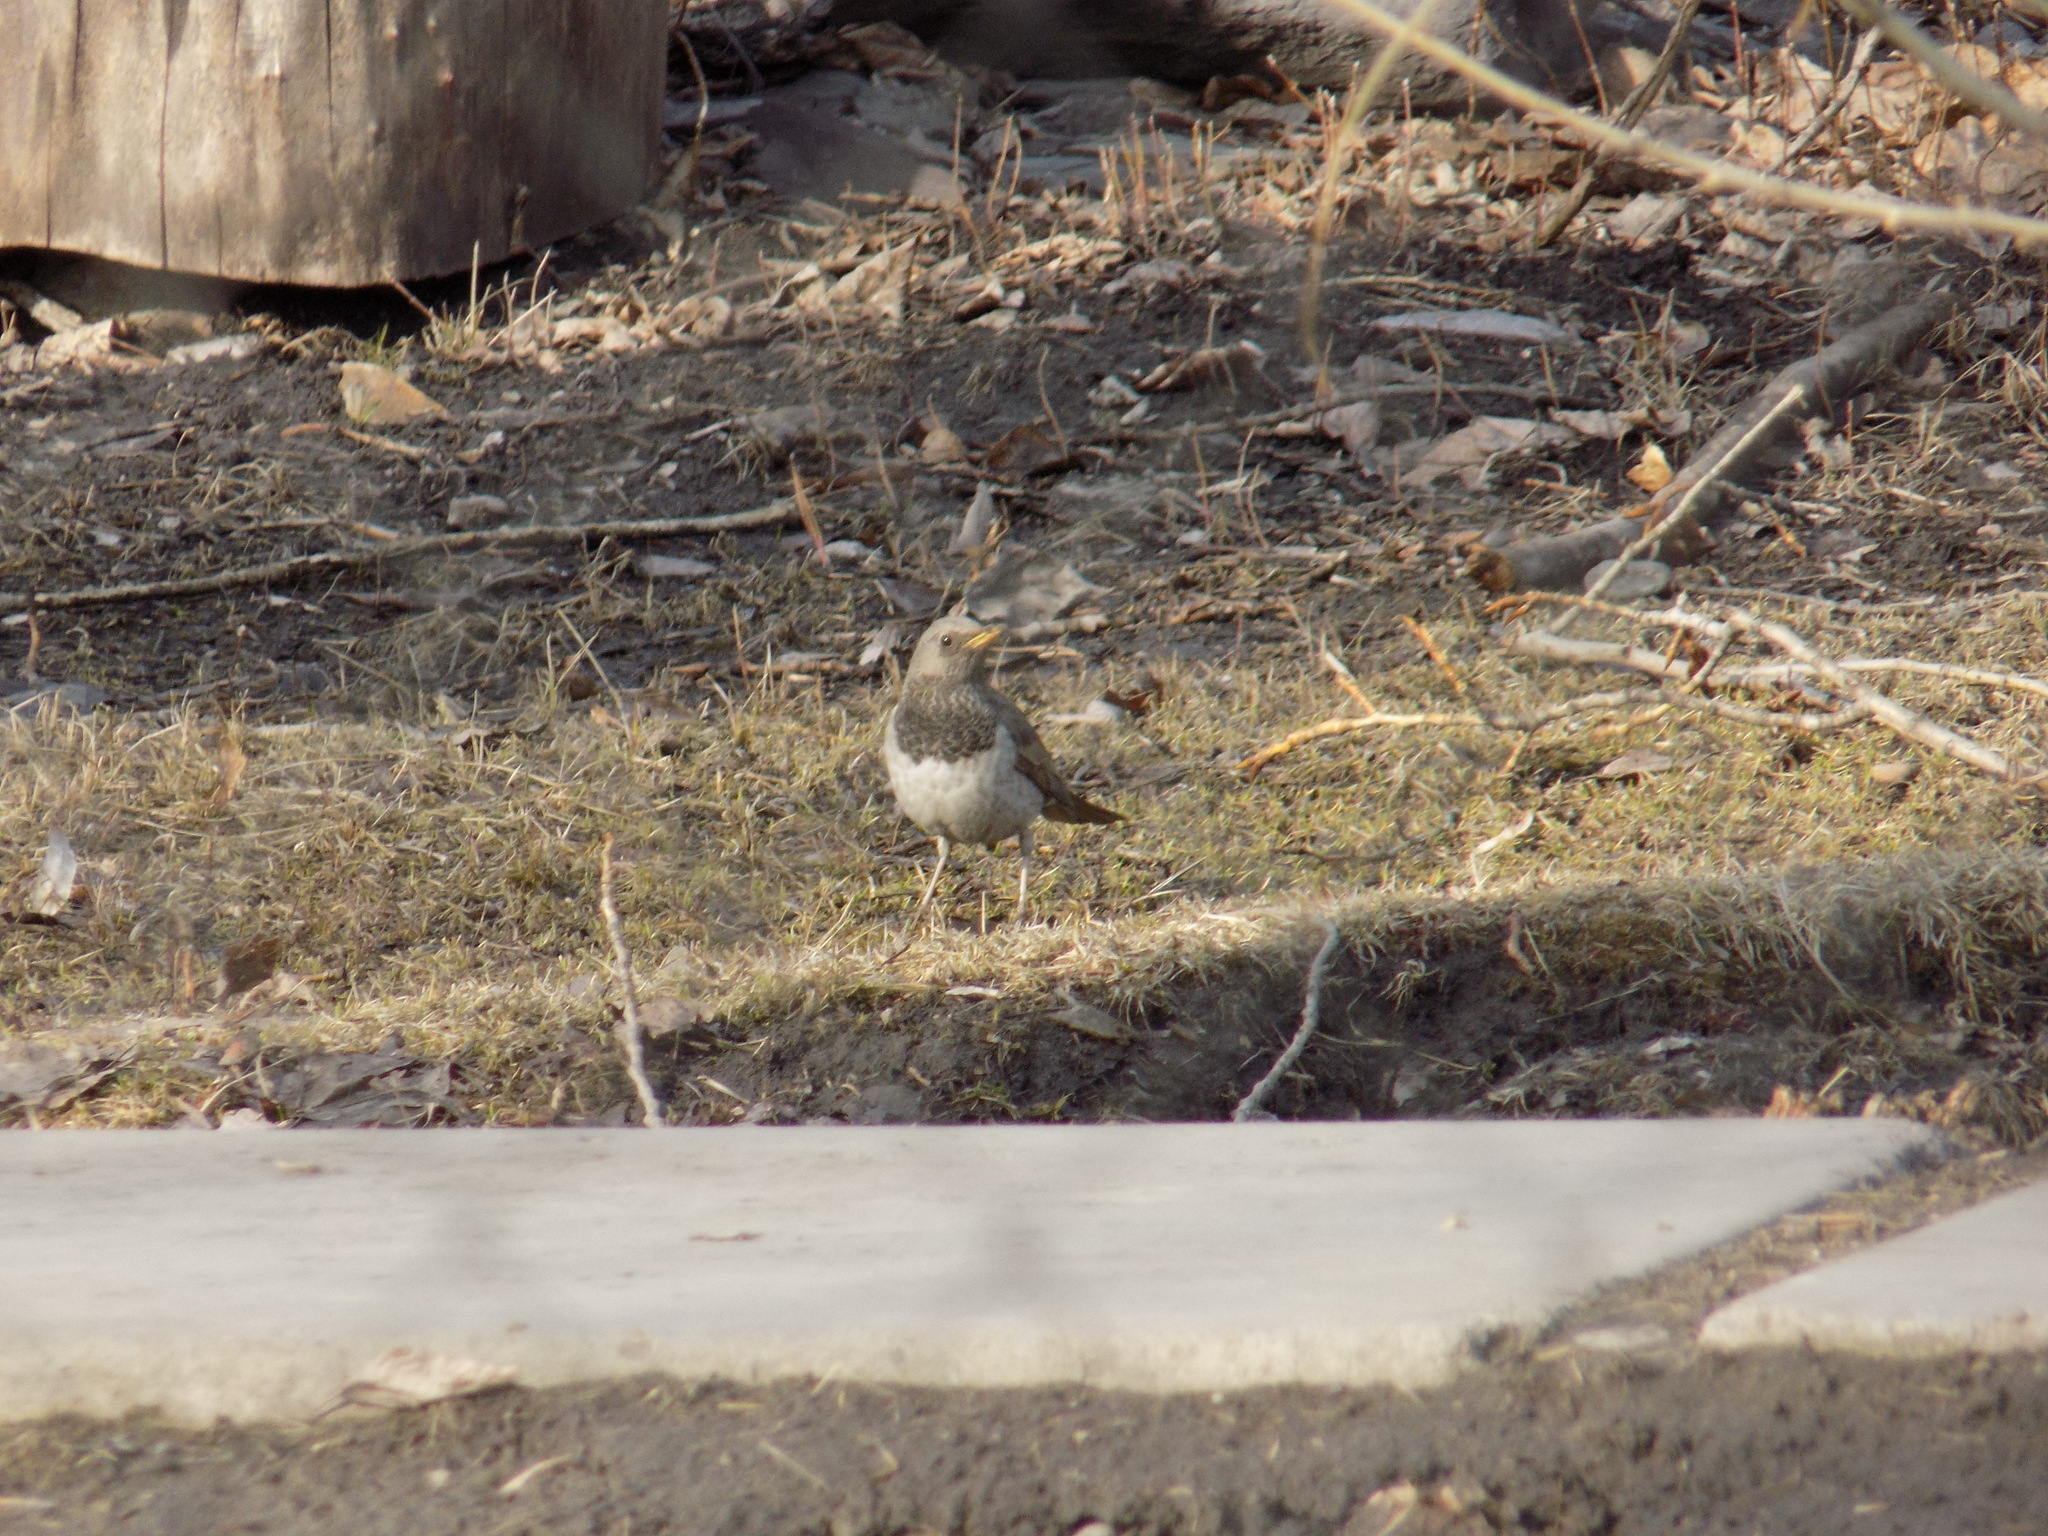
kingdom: Animalia
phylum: Chordata
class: Aves
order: Passeriformes
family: Turdidae
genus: Turdus
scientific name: Turdus atrogularis
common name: Black-throated thrush
